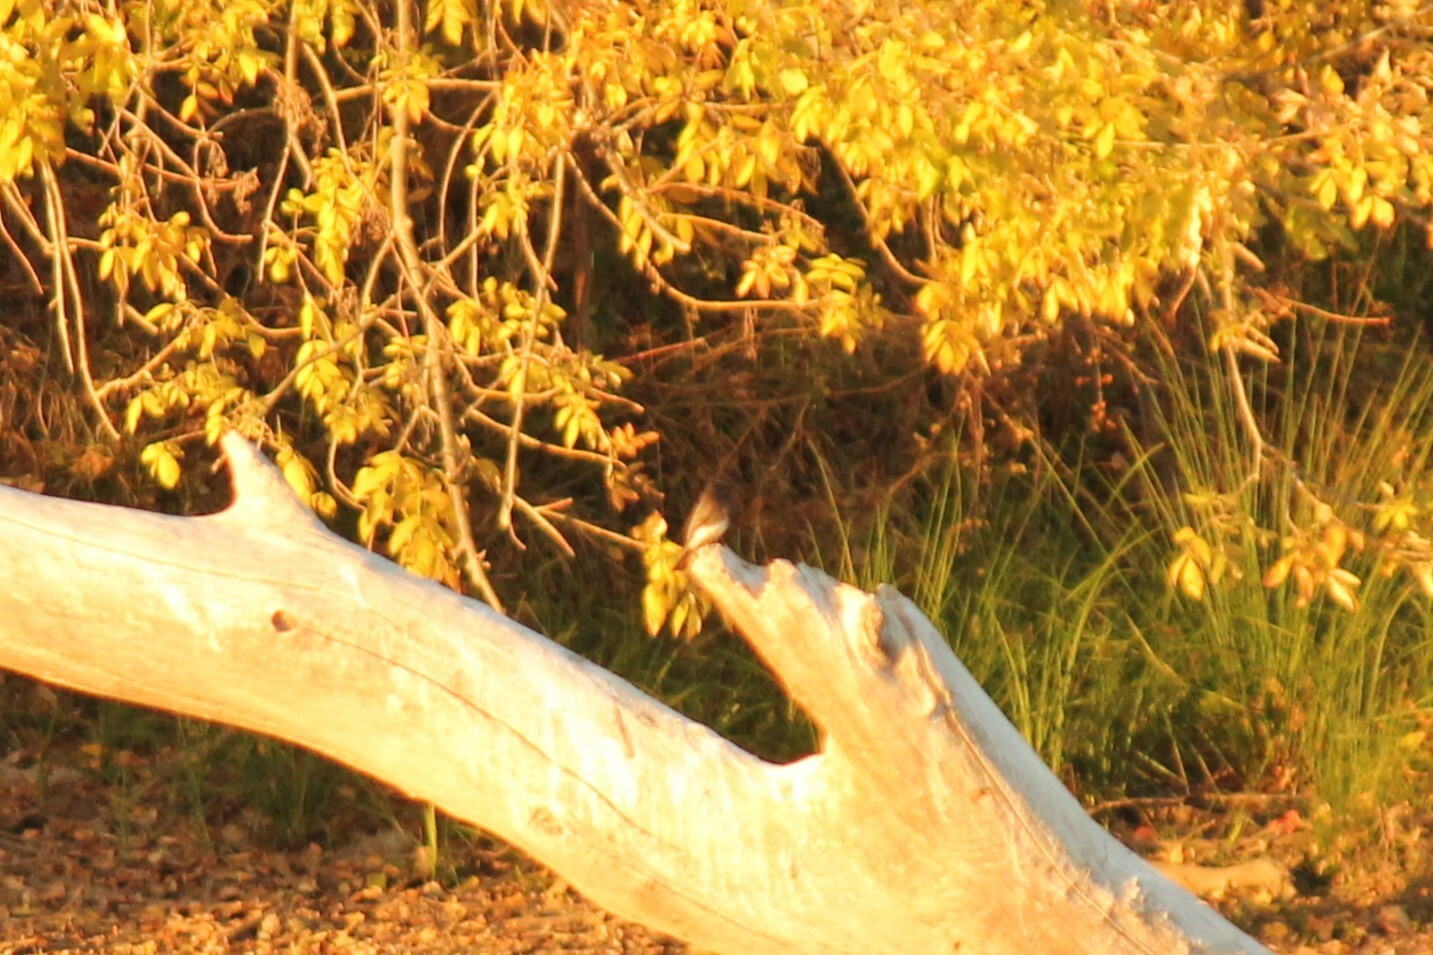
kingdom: Animalia
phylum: Chordata
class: Aves
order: Passeriformes
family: Tyrannidae
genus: Sayornis
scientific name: Sayornis nigricans
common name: Black phoebe
